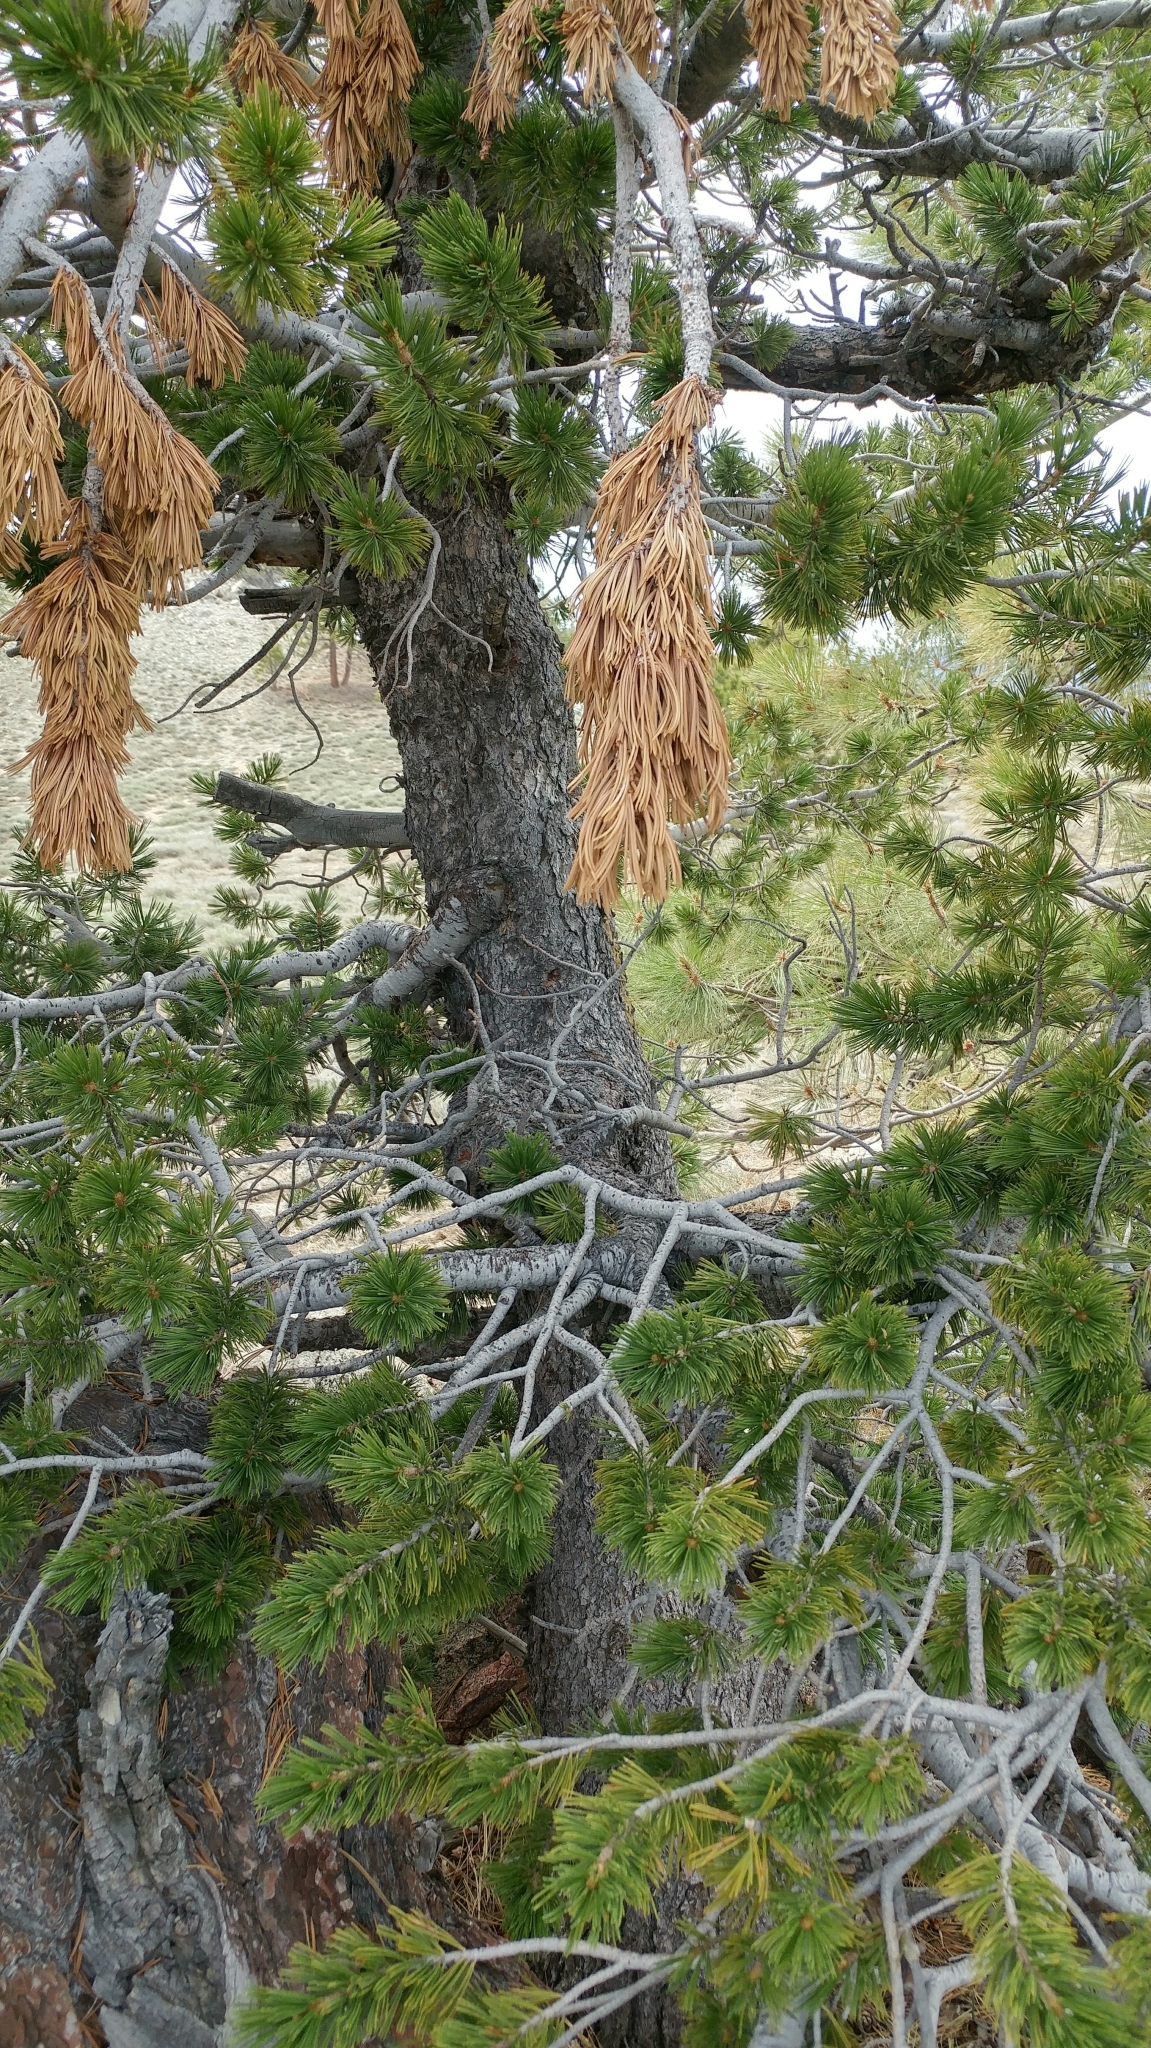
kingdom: Plantae
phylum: Tracheophyta
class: Pinopsida
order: Pinales
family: Pinaceae
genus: Pinus
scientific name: Pinus flexilis
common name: Limber pine
